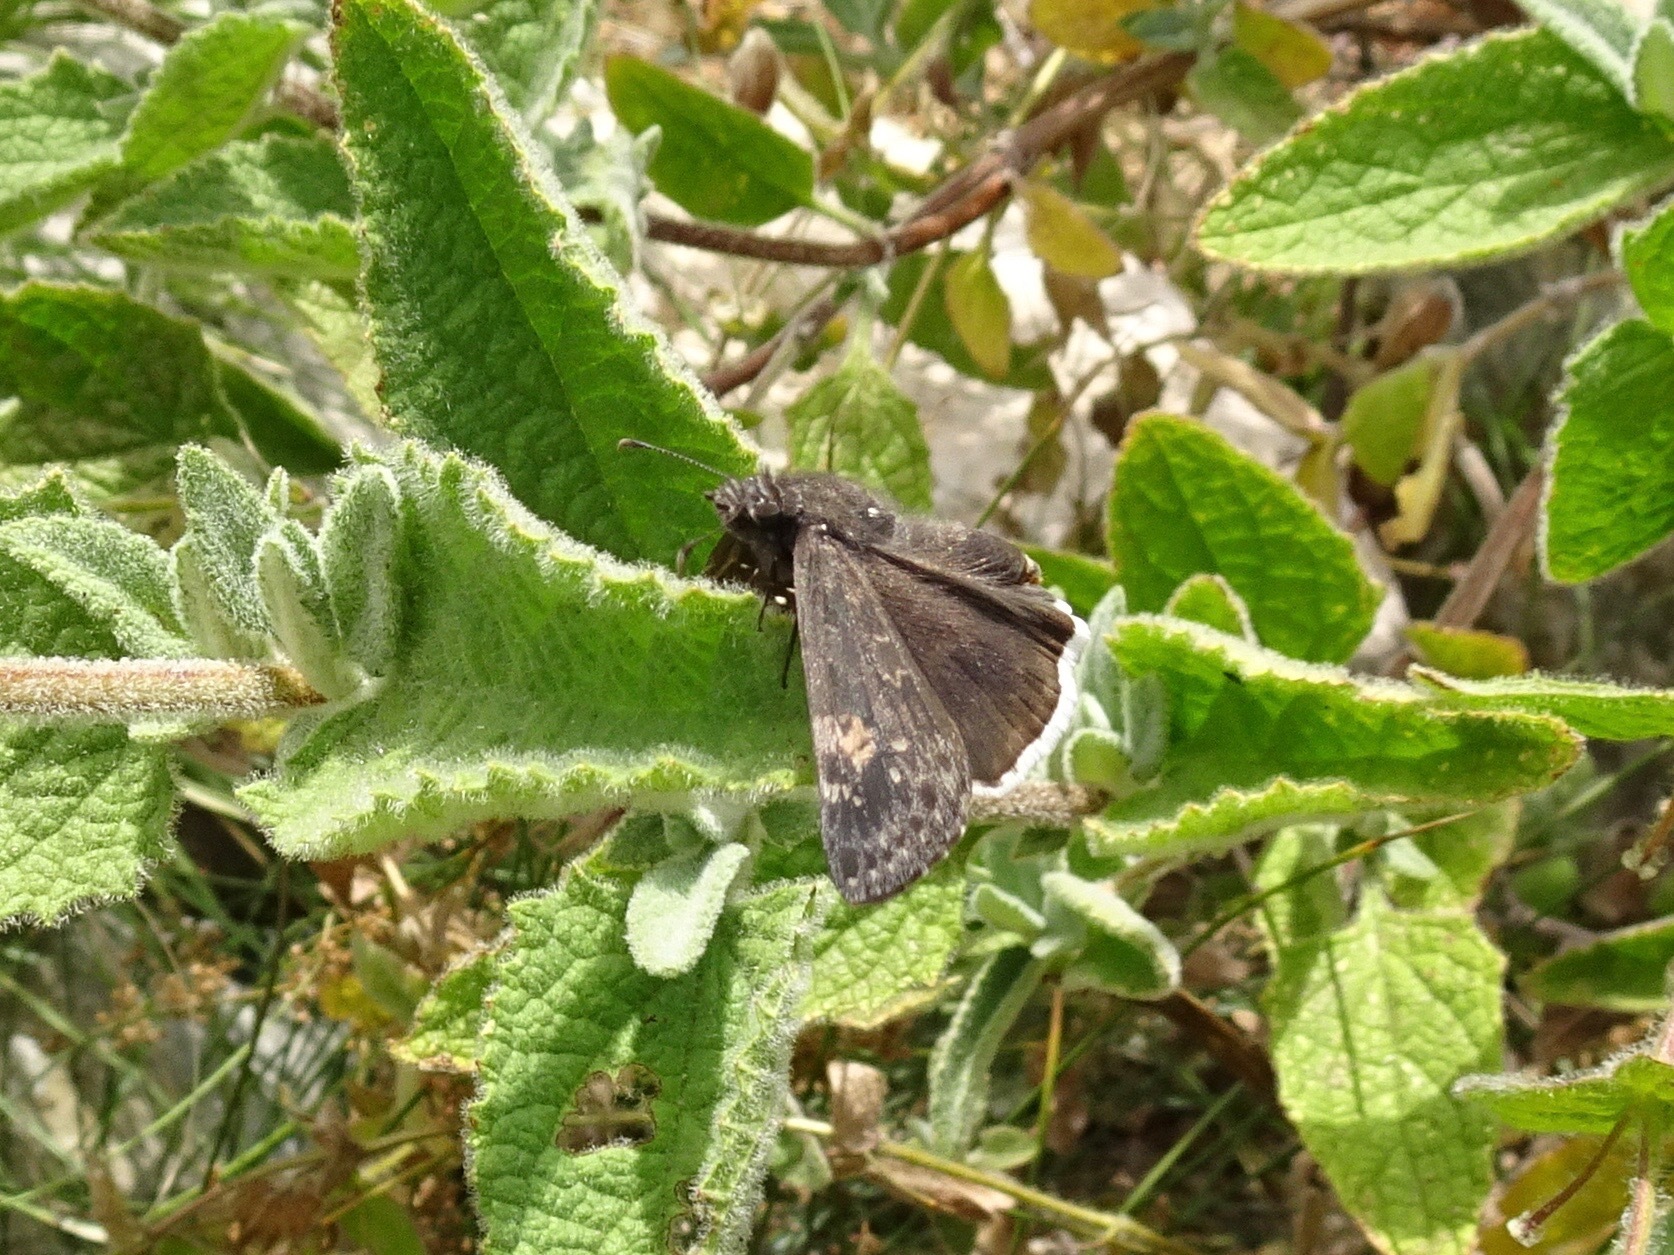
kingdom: Animalia
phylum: Arthropoda
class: Insecta
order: Lepidoptera
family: Hesperiidae
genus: Erynnis
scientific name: Erynnis funeralis
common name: Funereal duskywing
